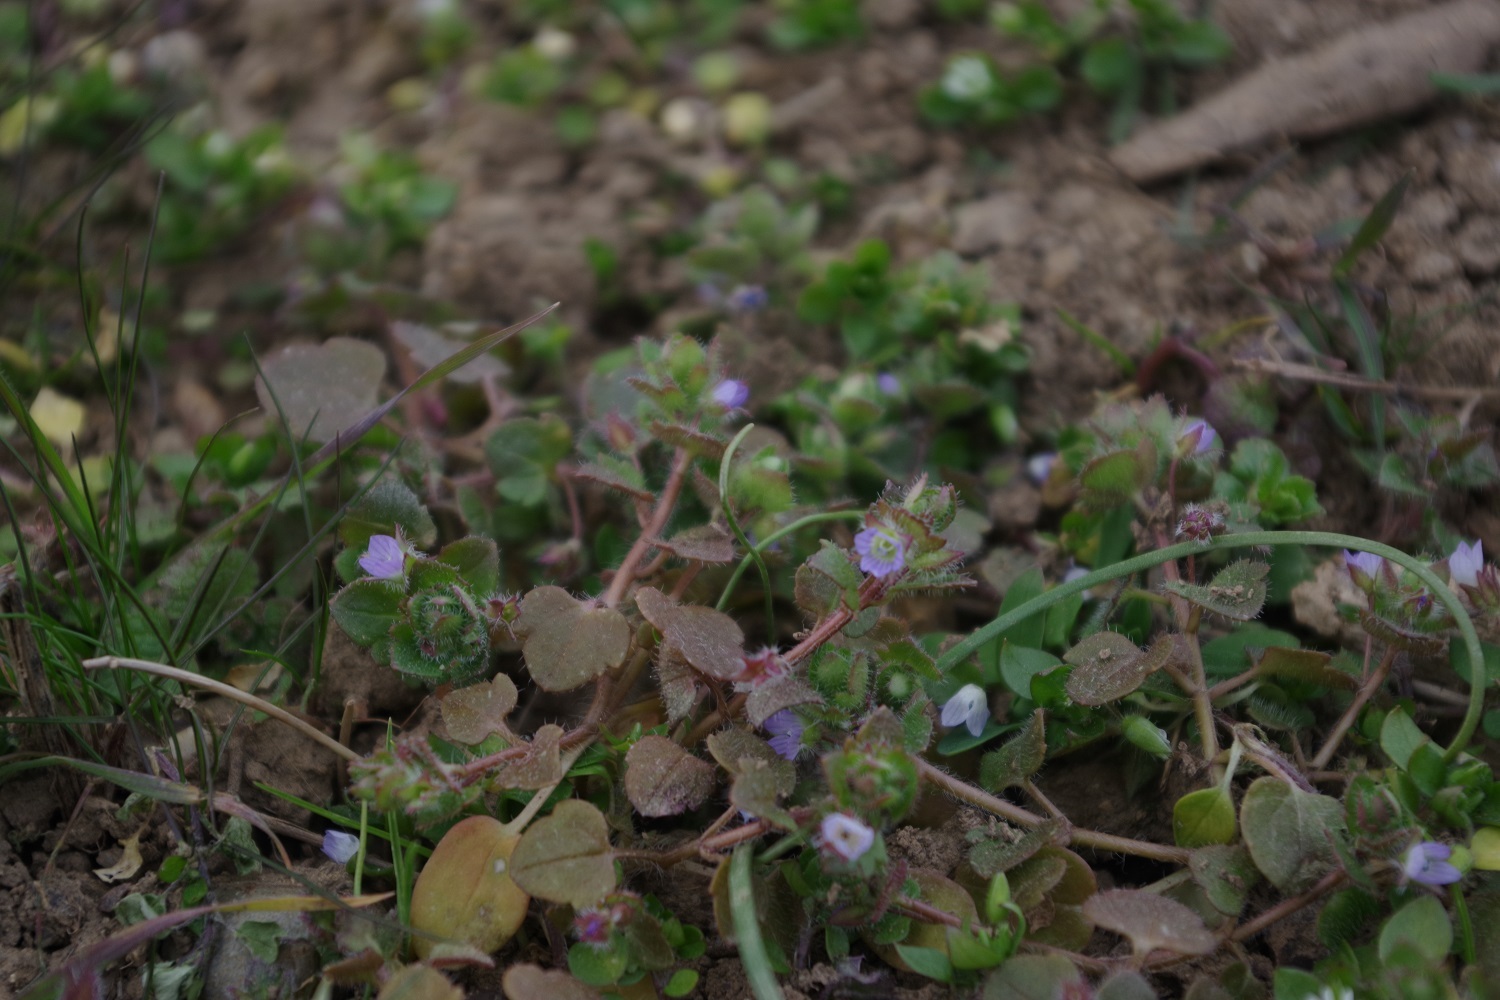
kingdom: Plantae
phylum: Tracheophyta
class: Magnoliopsida
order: Lamiales
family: Plantaginaceae
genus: Veronica
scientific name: Veronica hederifolia
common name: Ivy-leaved speedwell
